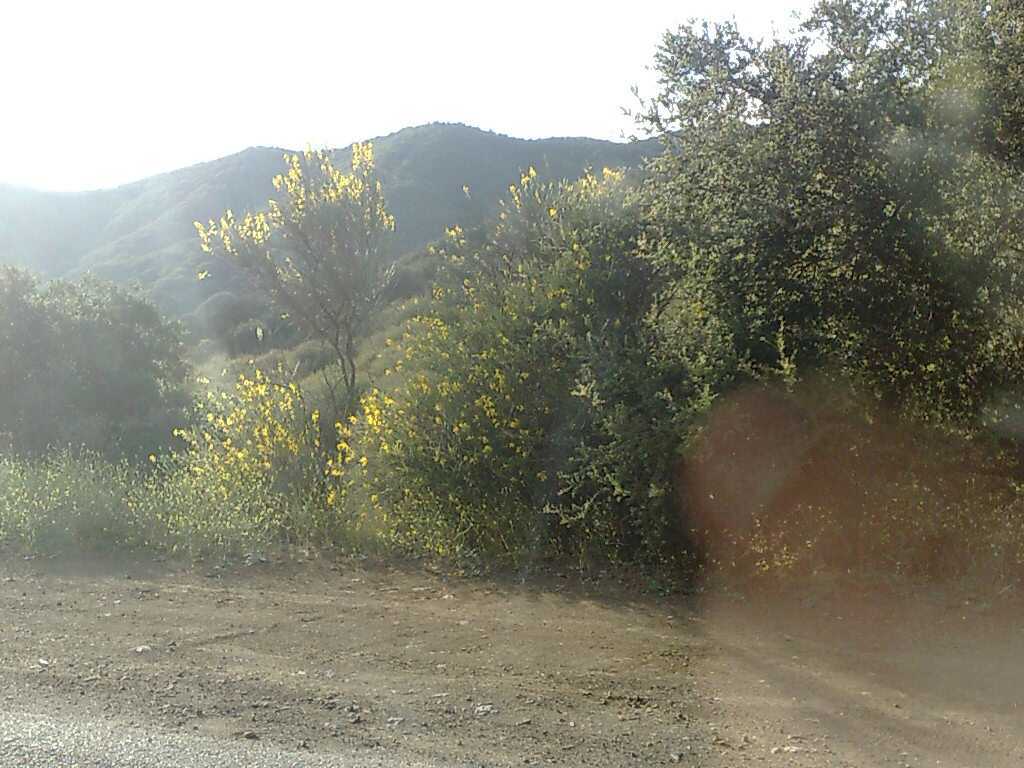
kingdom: Plantae
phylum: Tracheophyta
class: Magnoliopsida
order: Fabales
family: Fabaceae
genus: Spartium
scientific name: Spartium junceum
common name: Spanish broom
